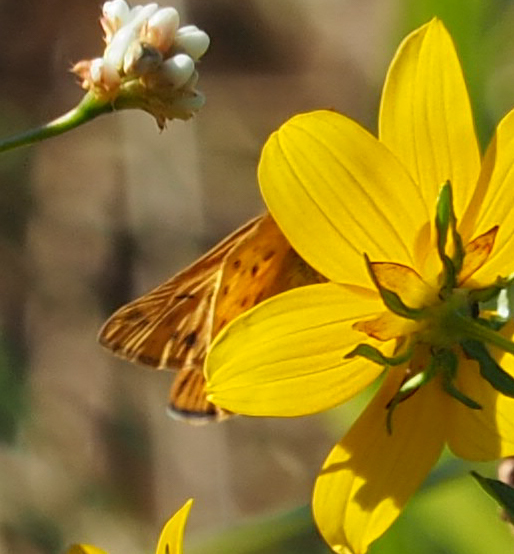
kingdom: Animalia
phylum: Arthropoda
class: Insecta
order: Lepidoptera
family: Hesperiidae
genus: Hylephila
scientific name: Hylephila phyleus
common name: Fiery skipper
